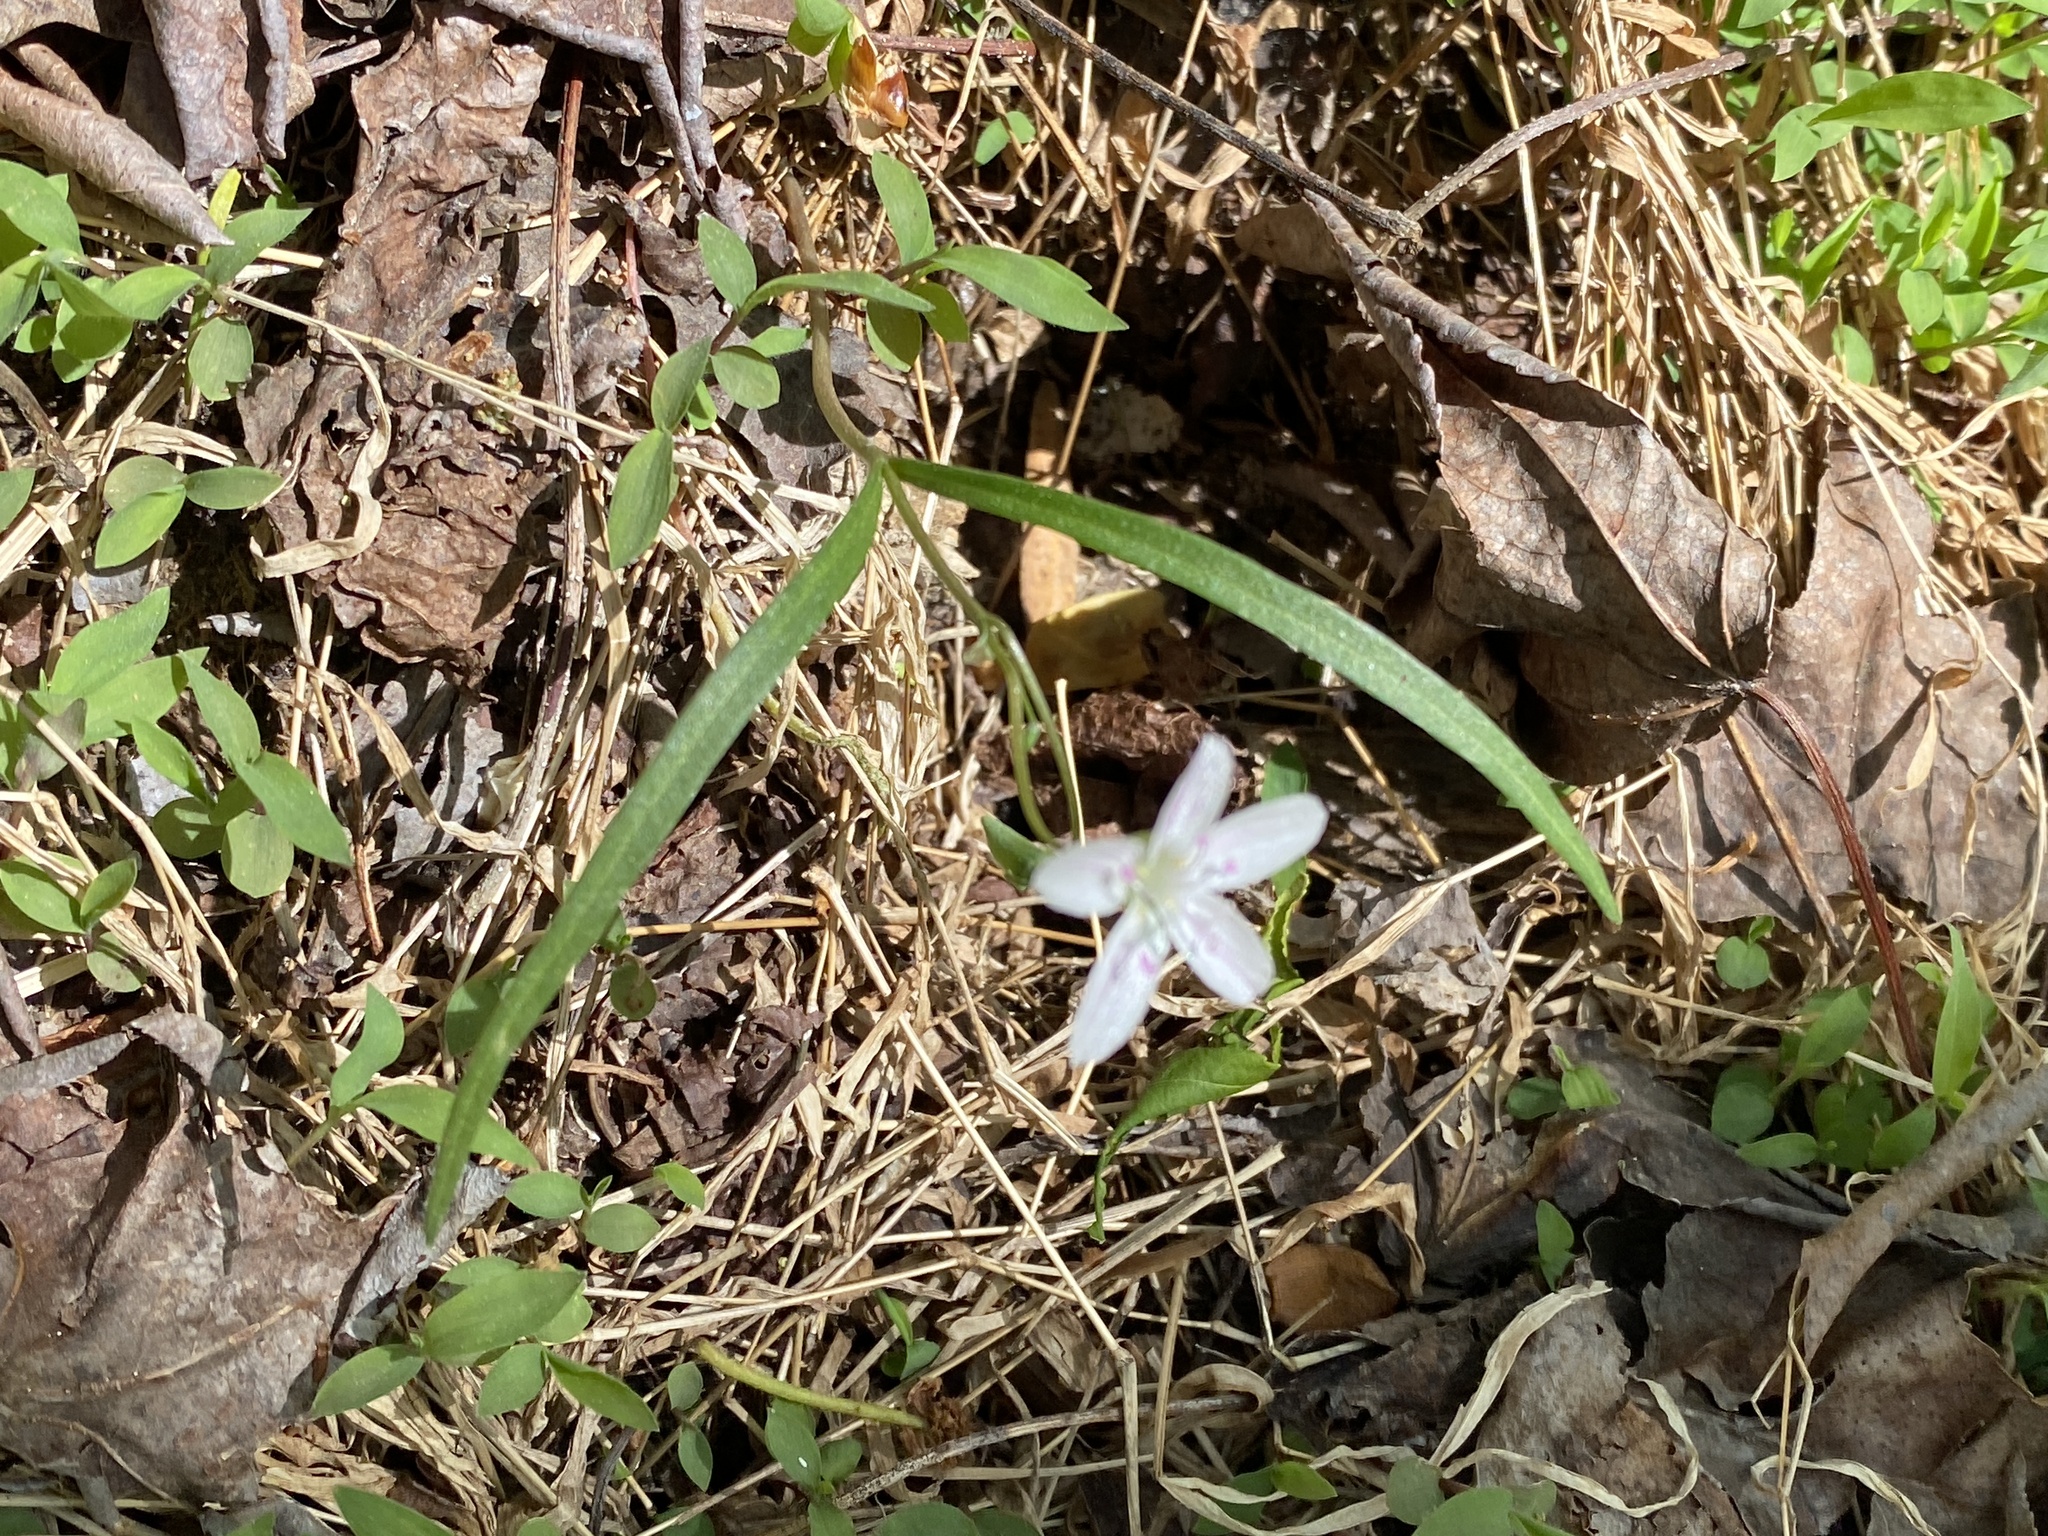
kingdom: Plantae
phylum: Tracheophyta
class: Magnoliopsida
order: Caryophyllales
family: Montiaceae
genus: Claytonia
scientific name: Claytonia virginica
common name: Virginia springbeauty
